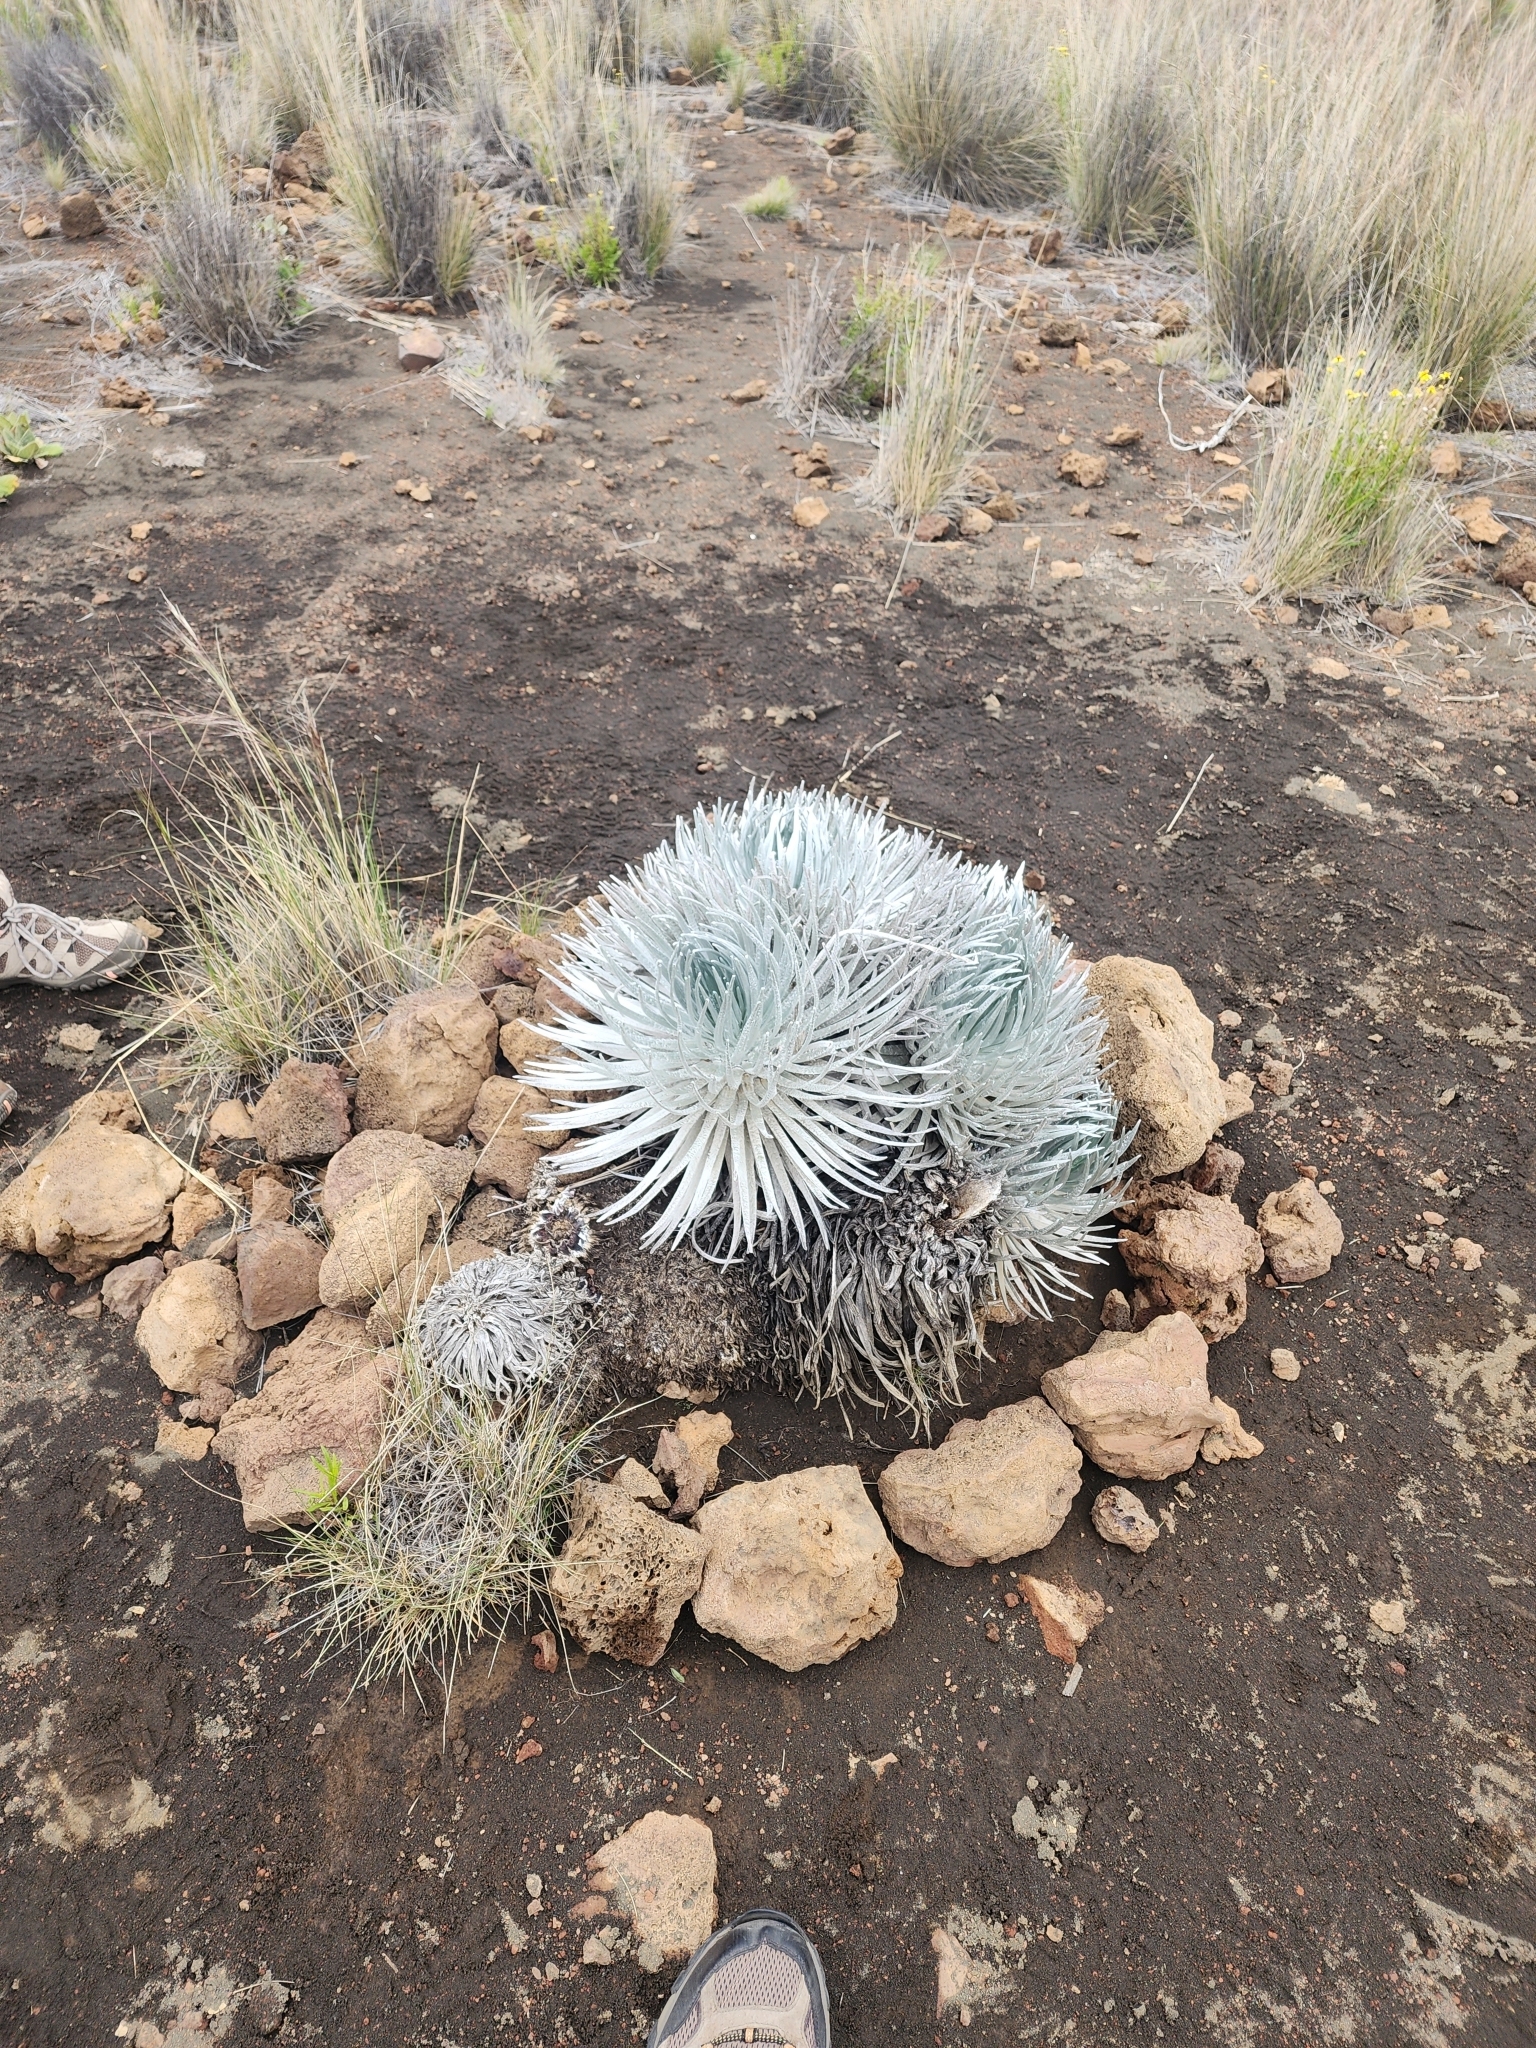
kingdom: Plantae
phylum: Tracheophyta
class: Magnoliopsida
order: Asterales
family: Asteraceae
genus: Argyroxiphium
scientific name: Argyroxiphium sandwicense
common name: Silversword
